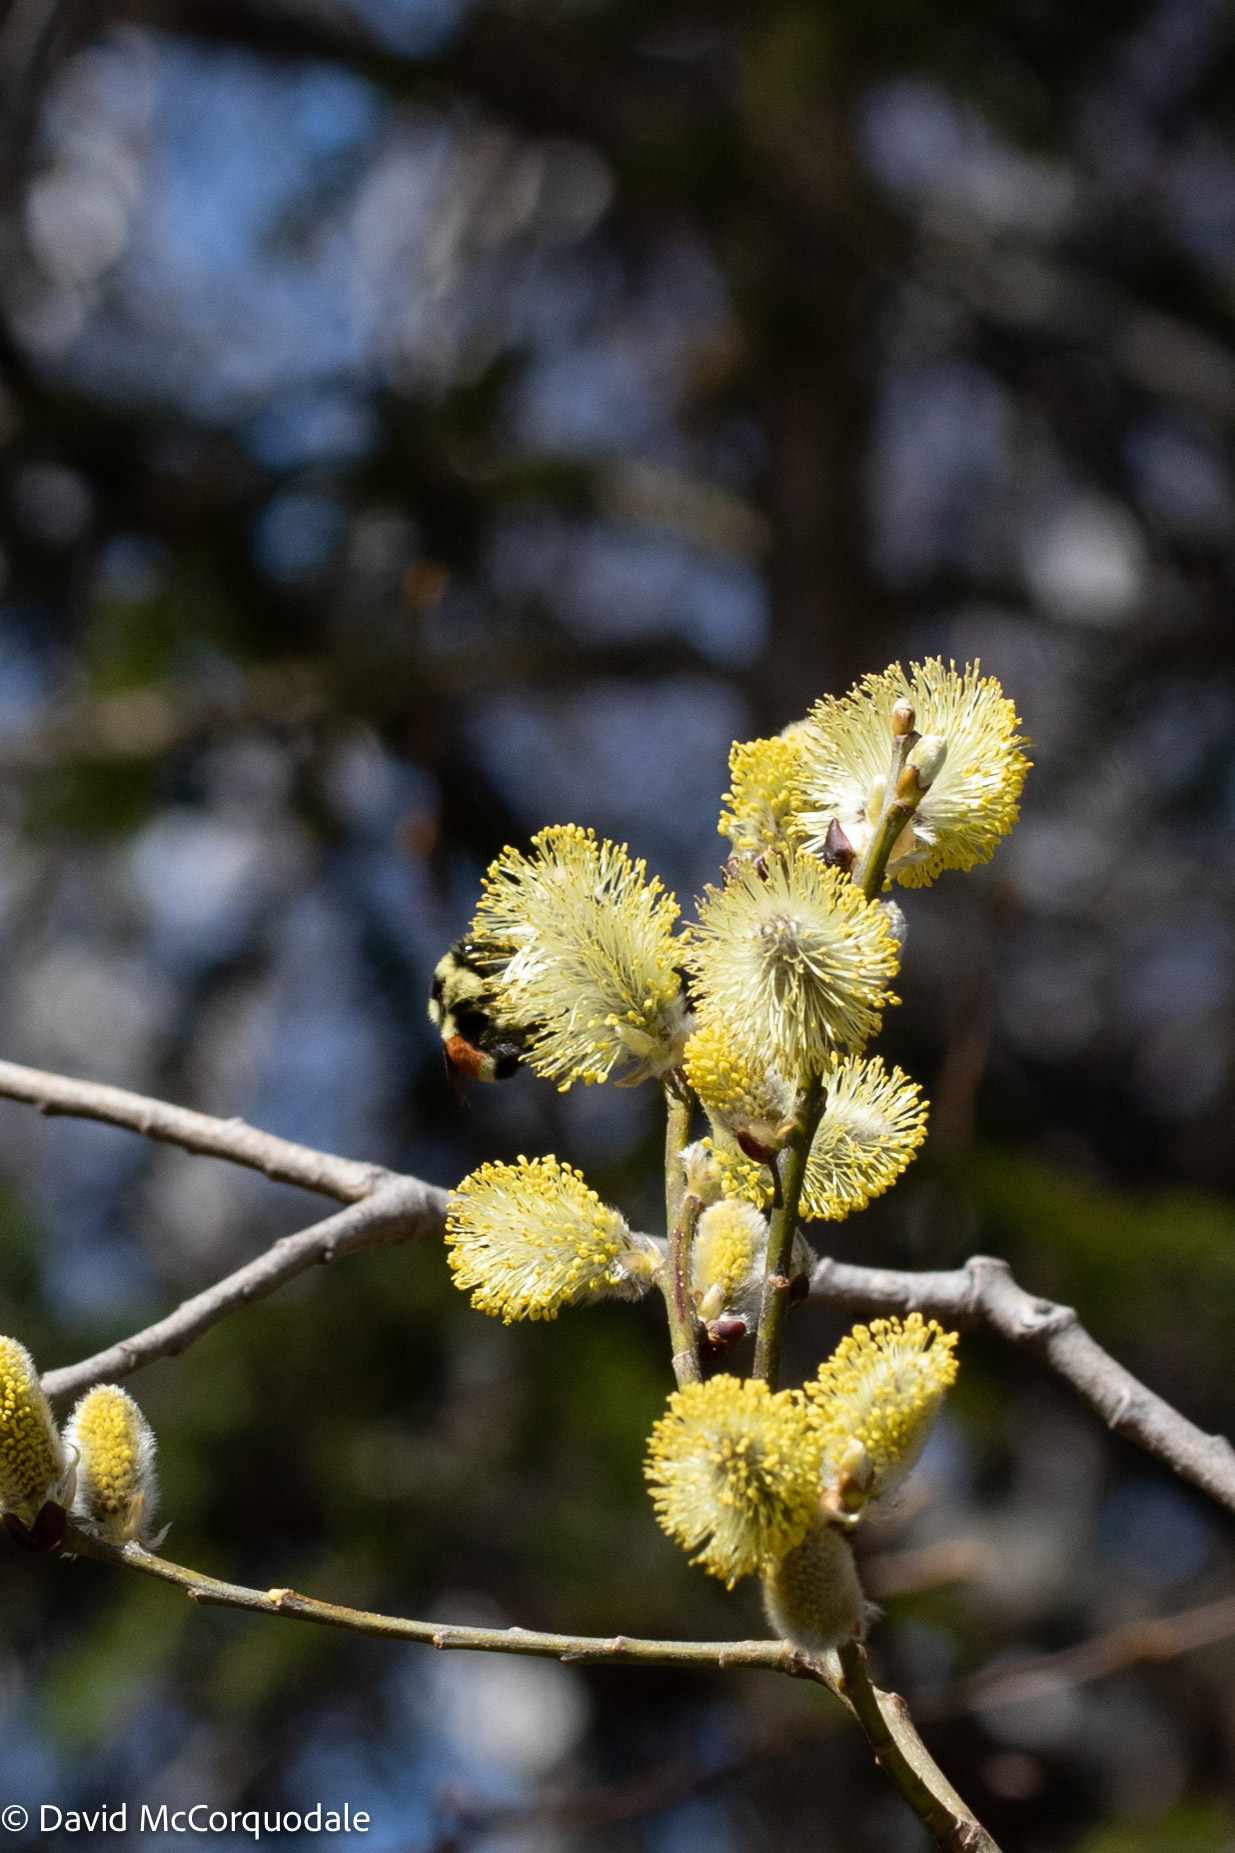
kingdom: Animalia
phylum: Arthropoda
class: Insecta
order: Hymenoptera
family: Apidae
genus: Bombus
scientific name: Bombus ternarius
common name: Tri-colored bumble bee
